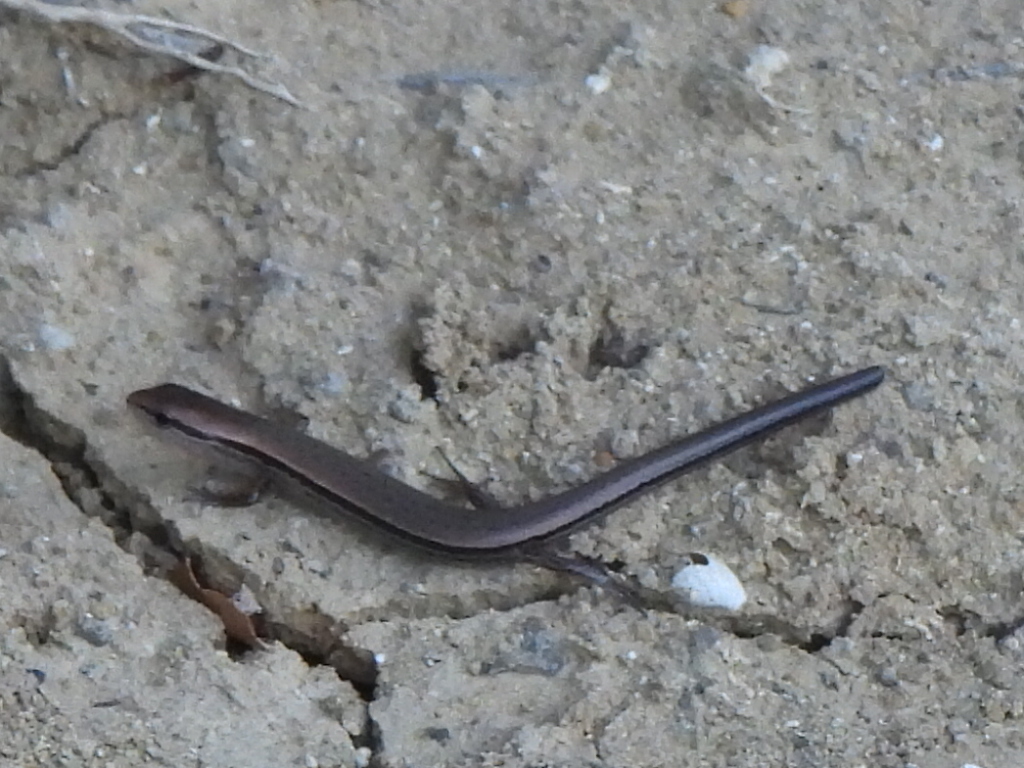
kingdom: Animalia
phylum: Chordata
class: Squamata
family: Scincidae
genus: Scincella
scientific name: Scincella lateralis
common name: Ground skink
